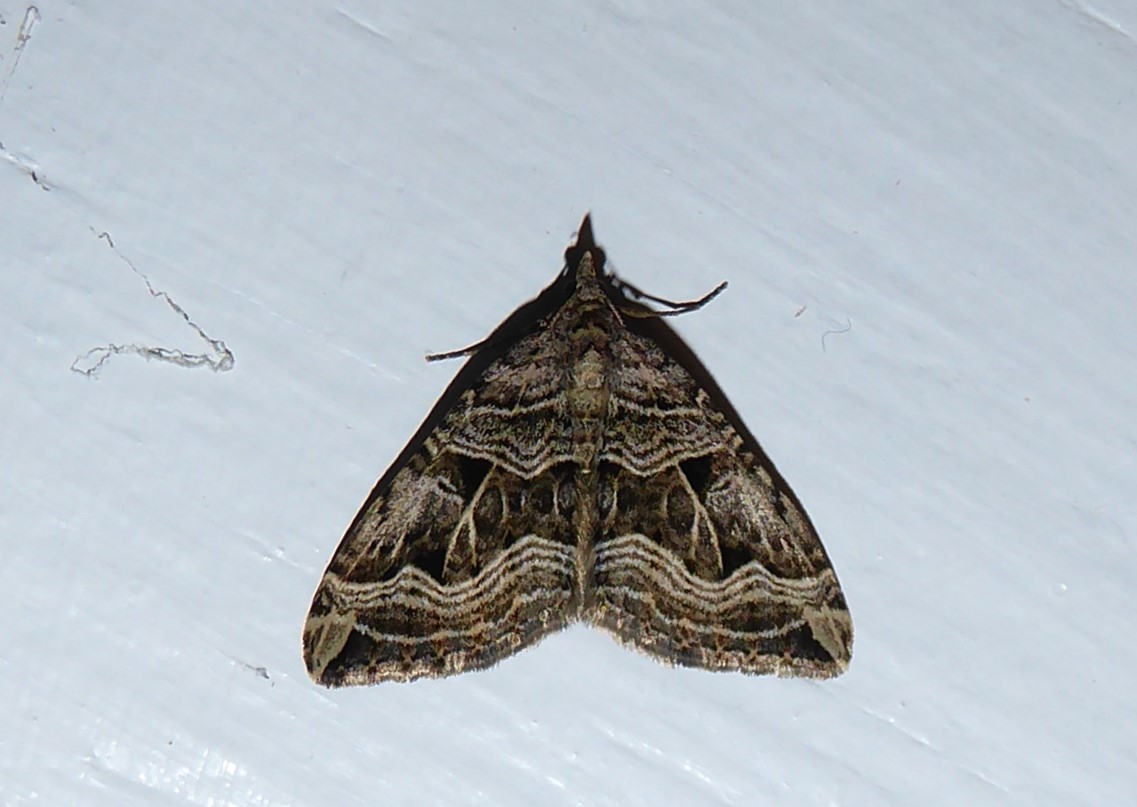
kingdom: Animalia
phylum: Arthropoda
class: Insecta
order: Lepidoptera
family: Geometridae
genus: Xanthorhoe
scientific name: Xanthorhoe semifissata
